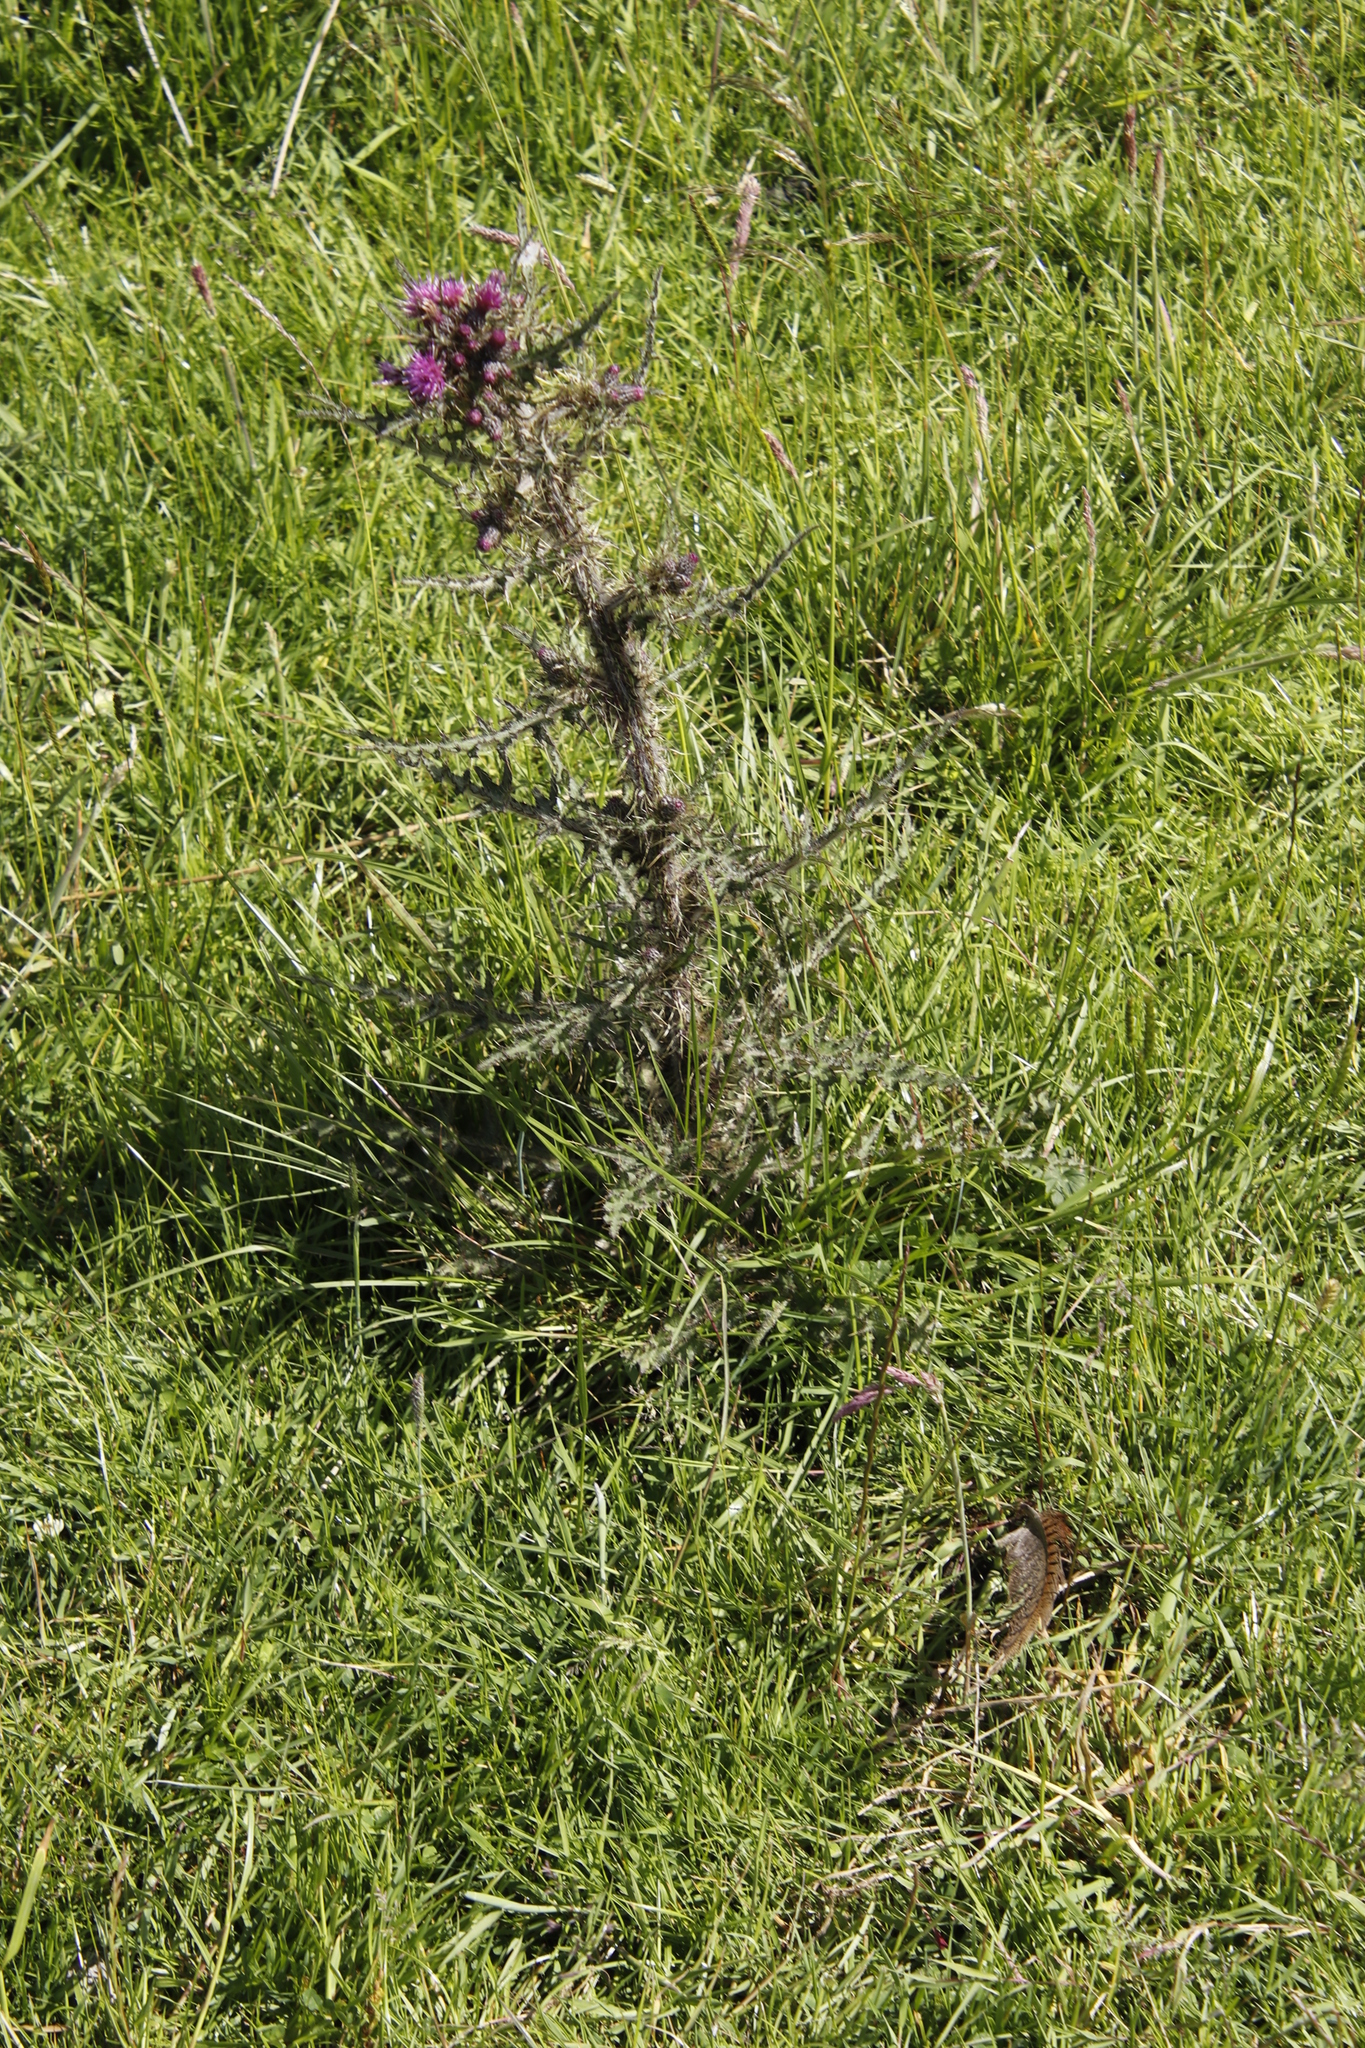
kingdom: Plantae
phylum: Tracheophyta
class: Magnoliopsida
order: Asterales
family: Asteraceae
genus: Cirsium
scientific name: Cirsium palustre
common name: Marsh thistle
